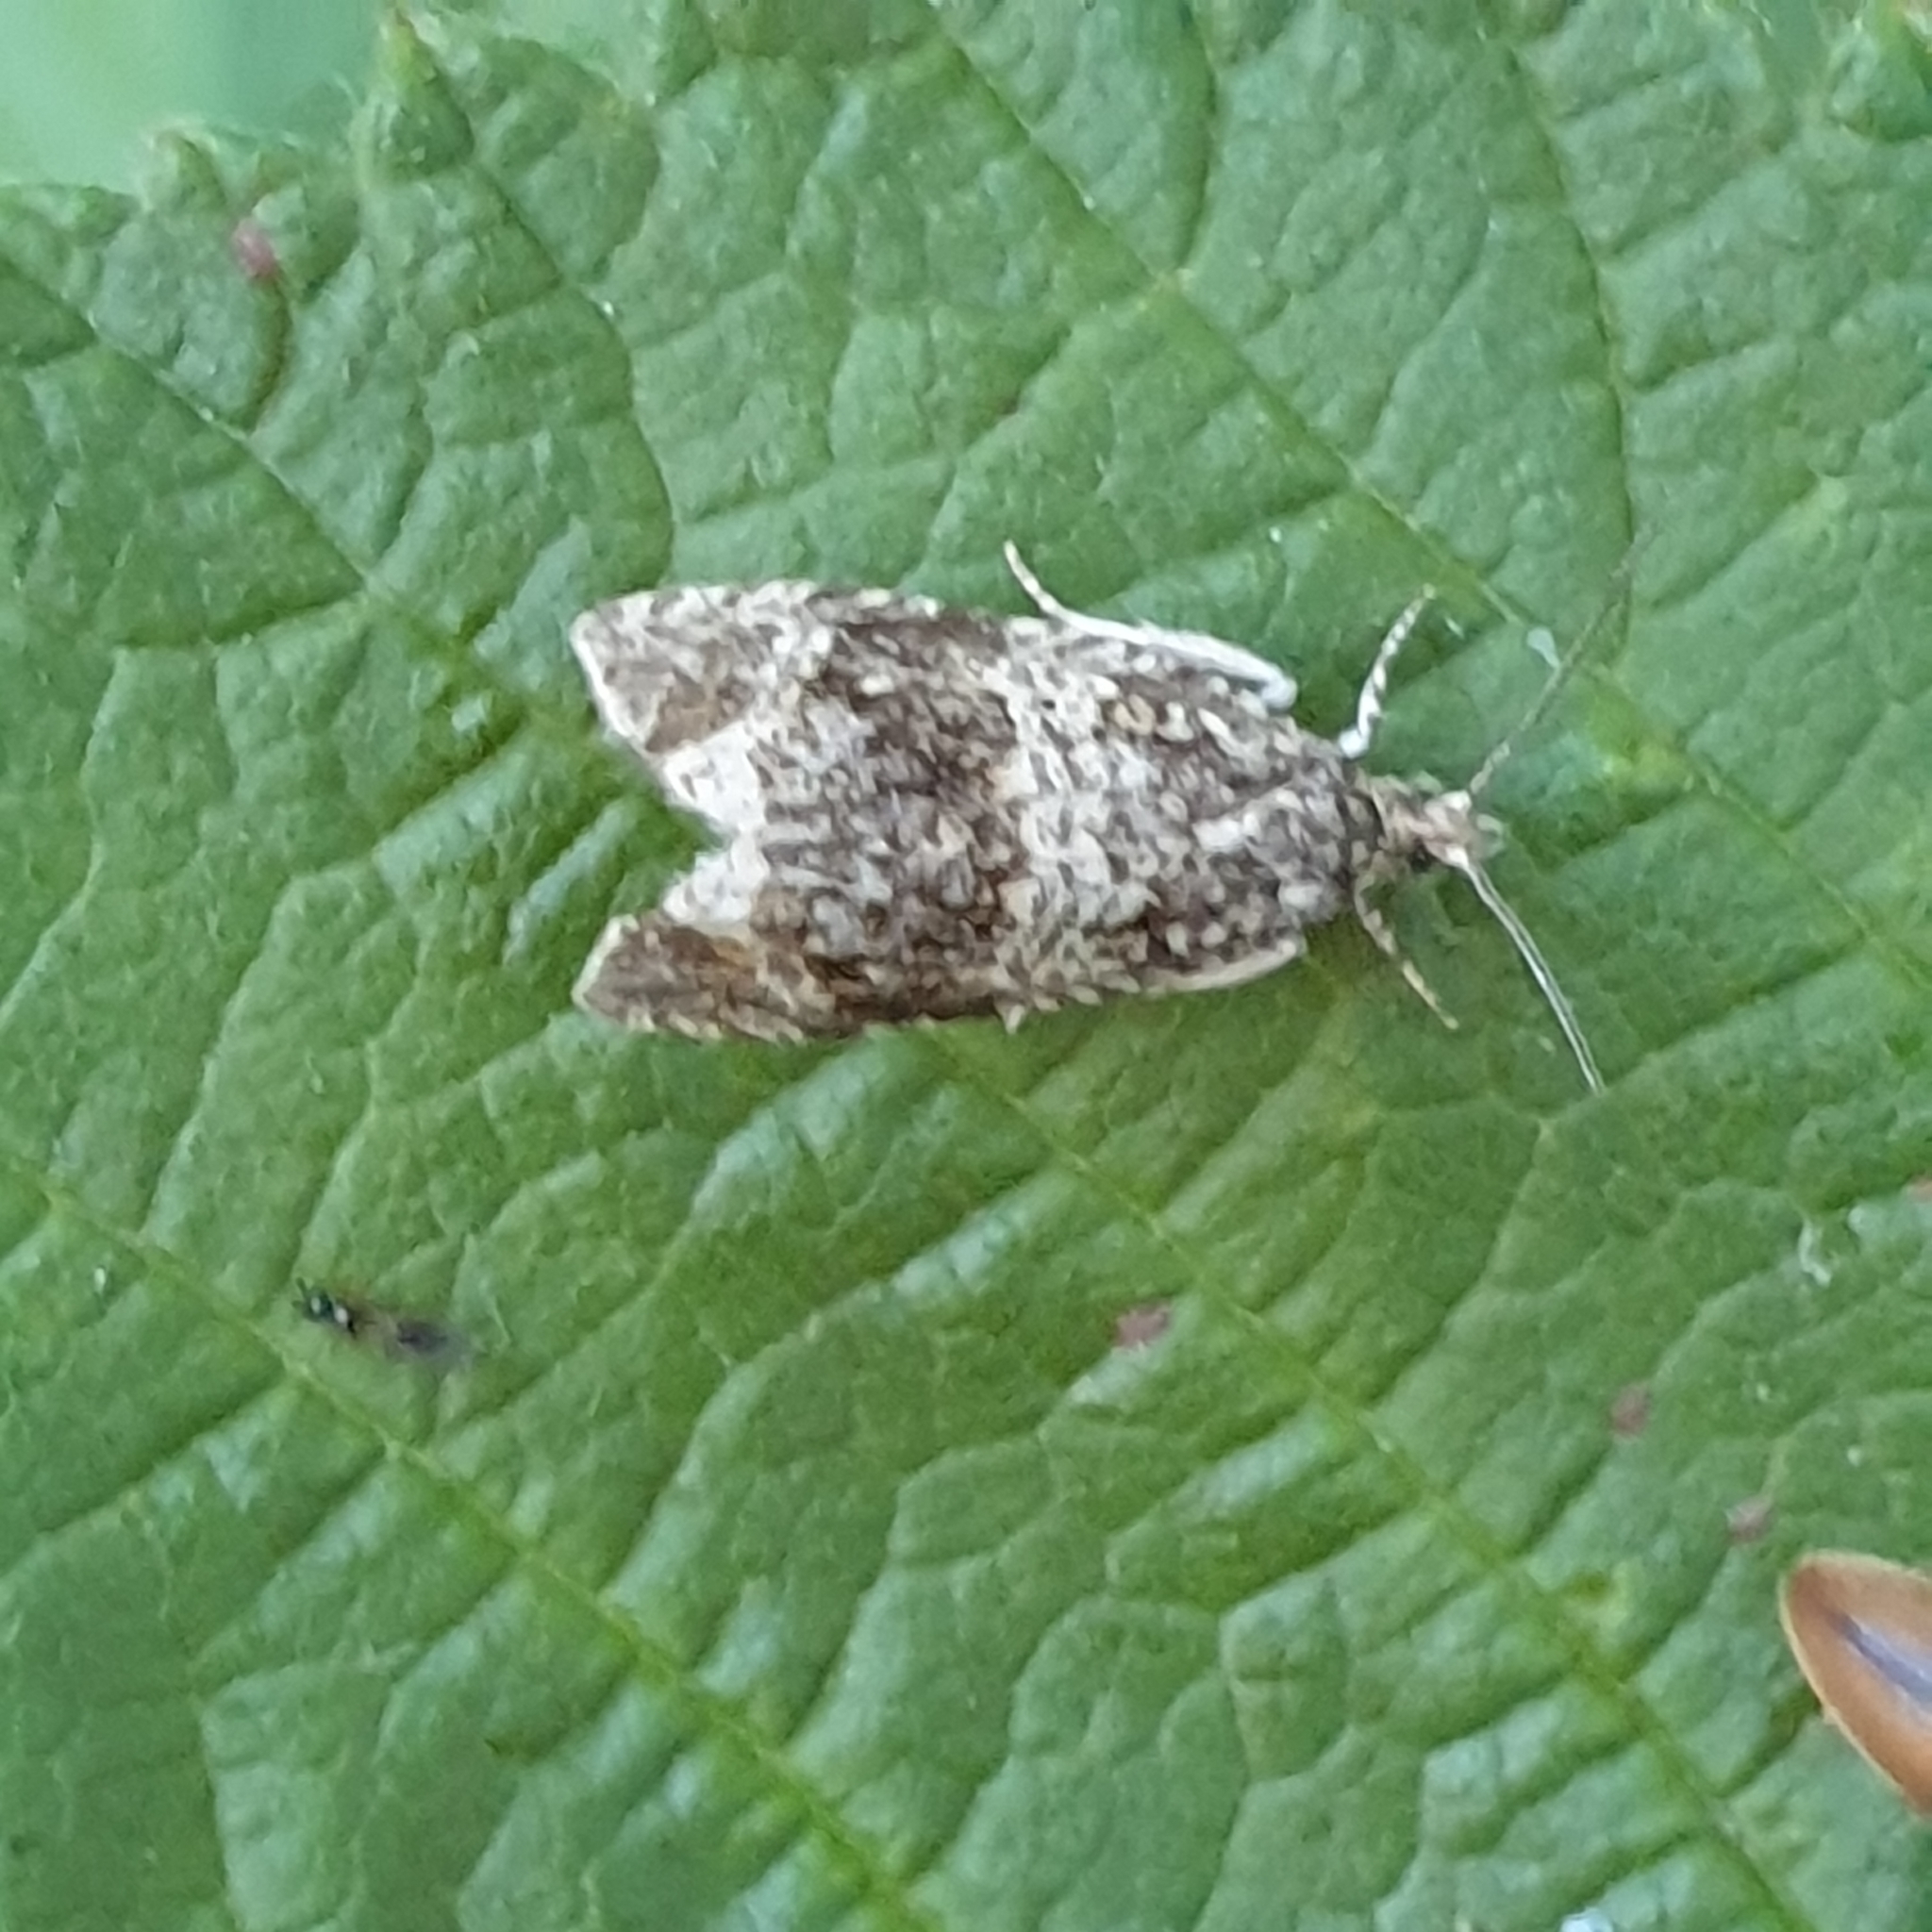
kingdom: Animalia
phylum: Arthropoda
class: Insecta
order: Lepidoptera
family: Tortricidae
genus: Syricoris
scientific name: Syricoris lacunana
